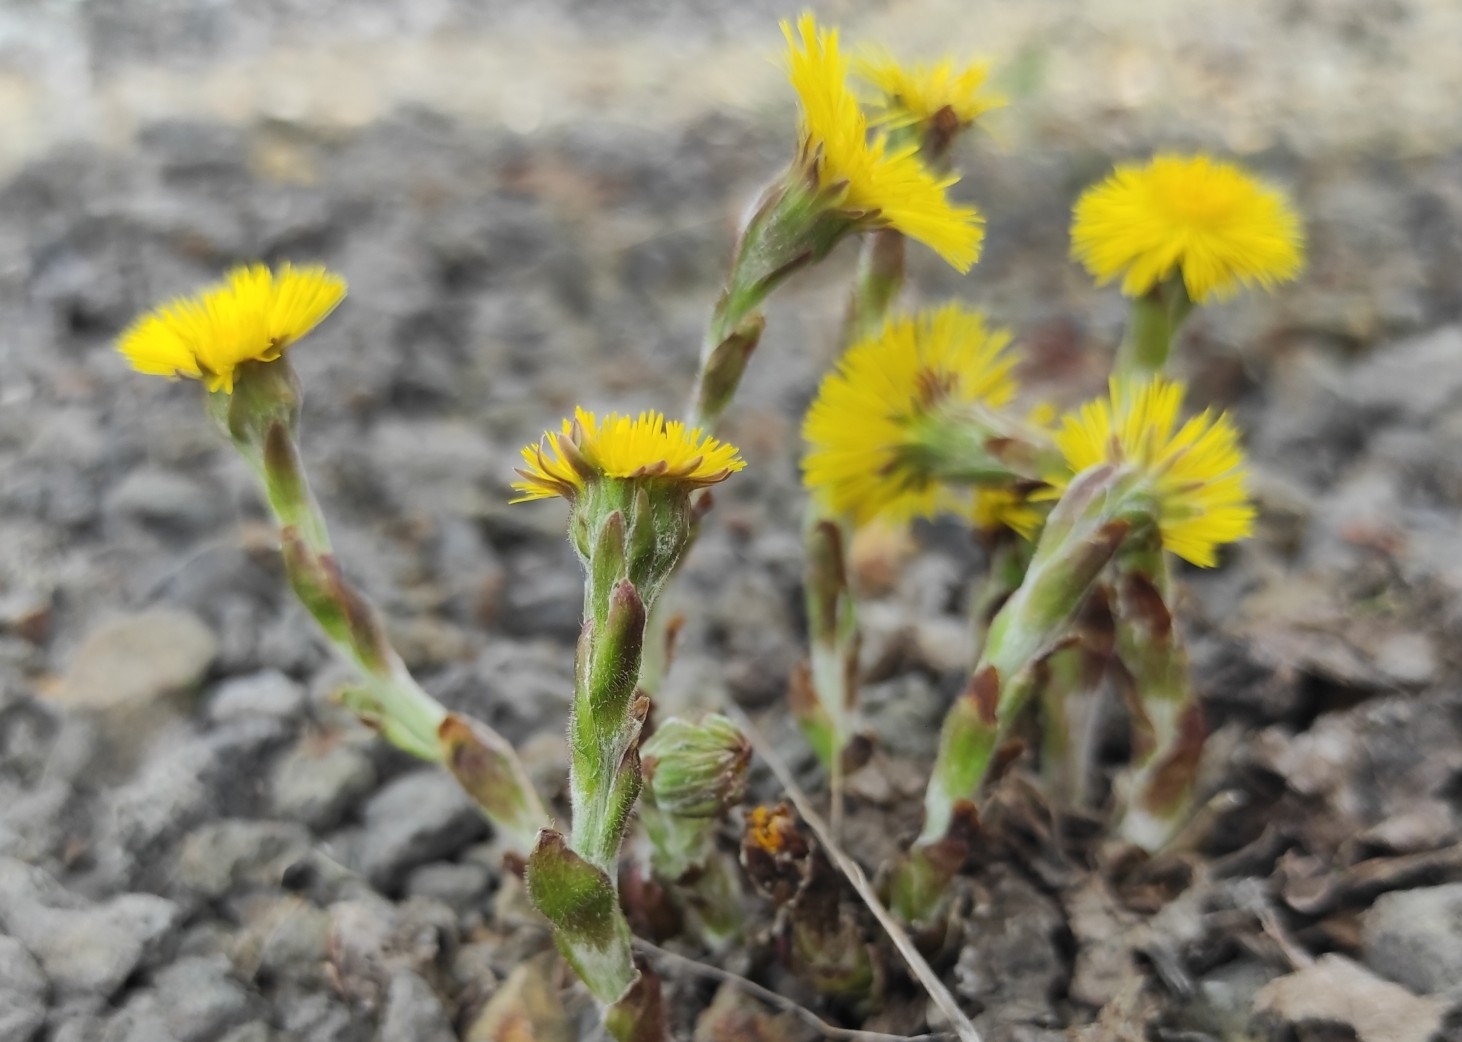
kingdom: Plantae
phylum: Tracheophyta
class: Magnoliopsida
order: Asterales
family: Asteraceae
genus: Tussilago
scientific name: Tussilago farfara
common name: Coltsfoot
